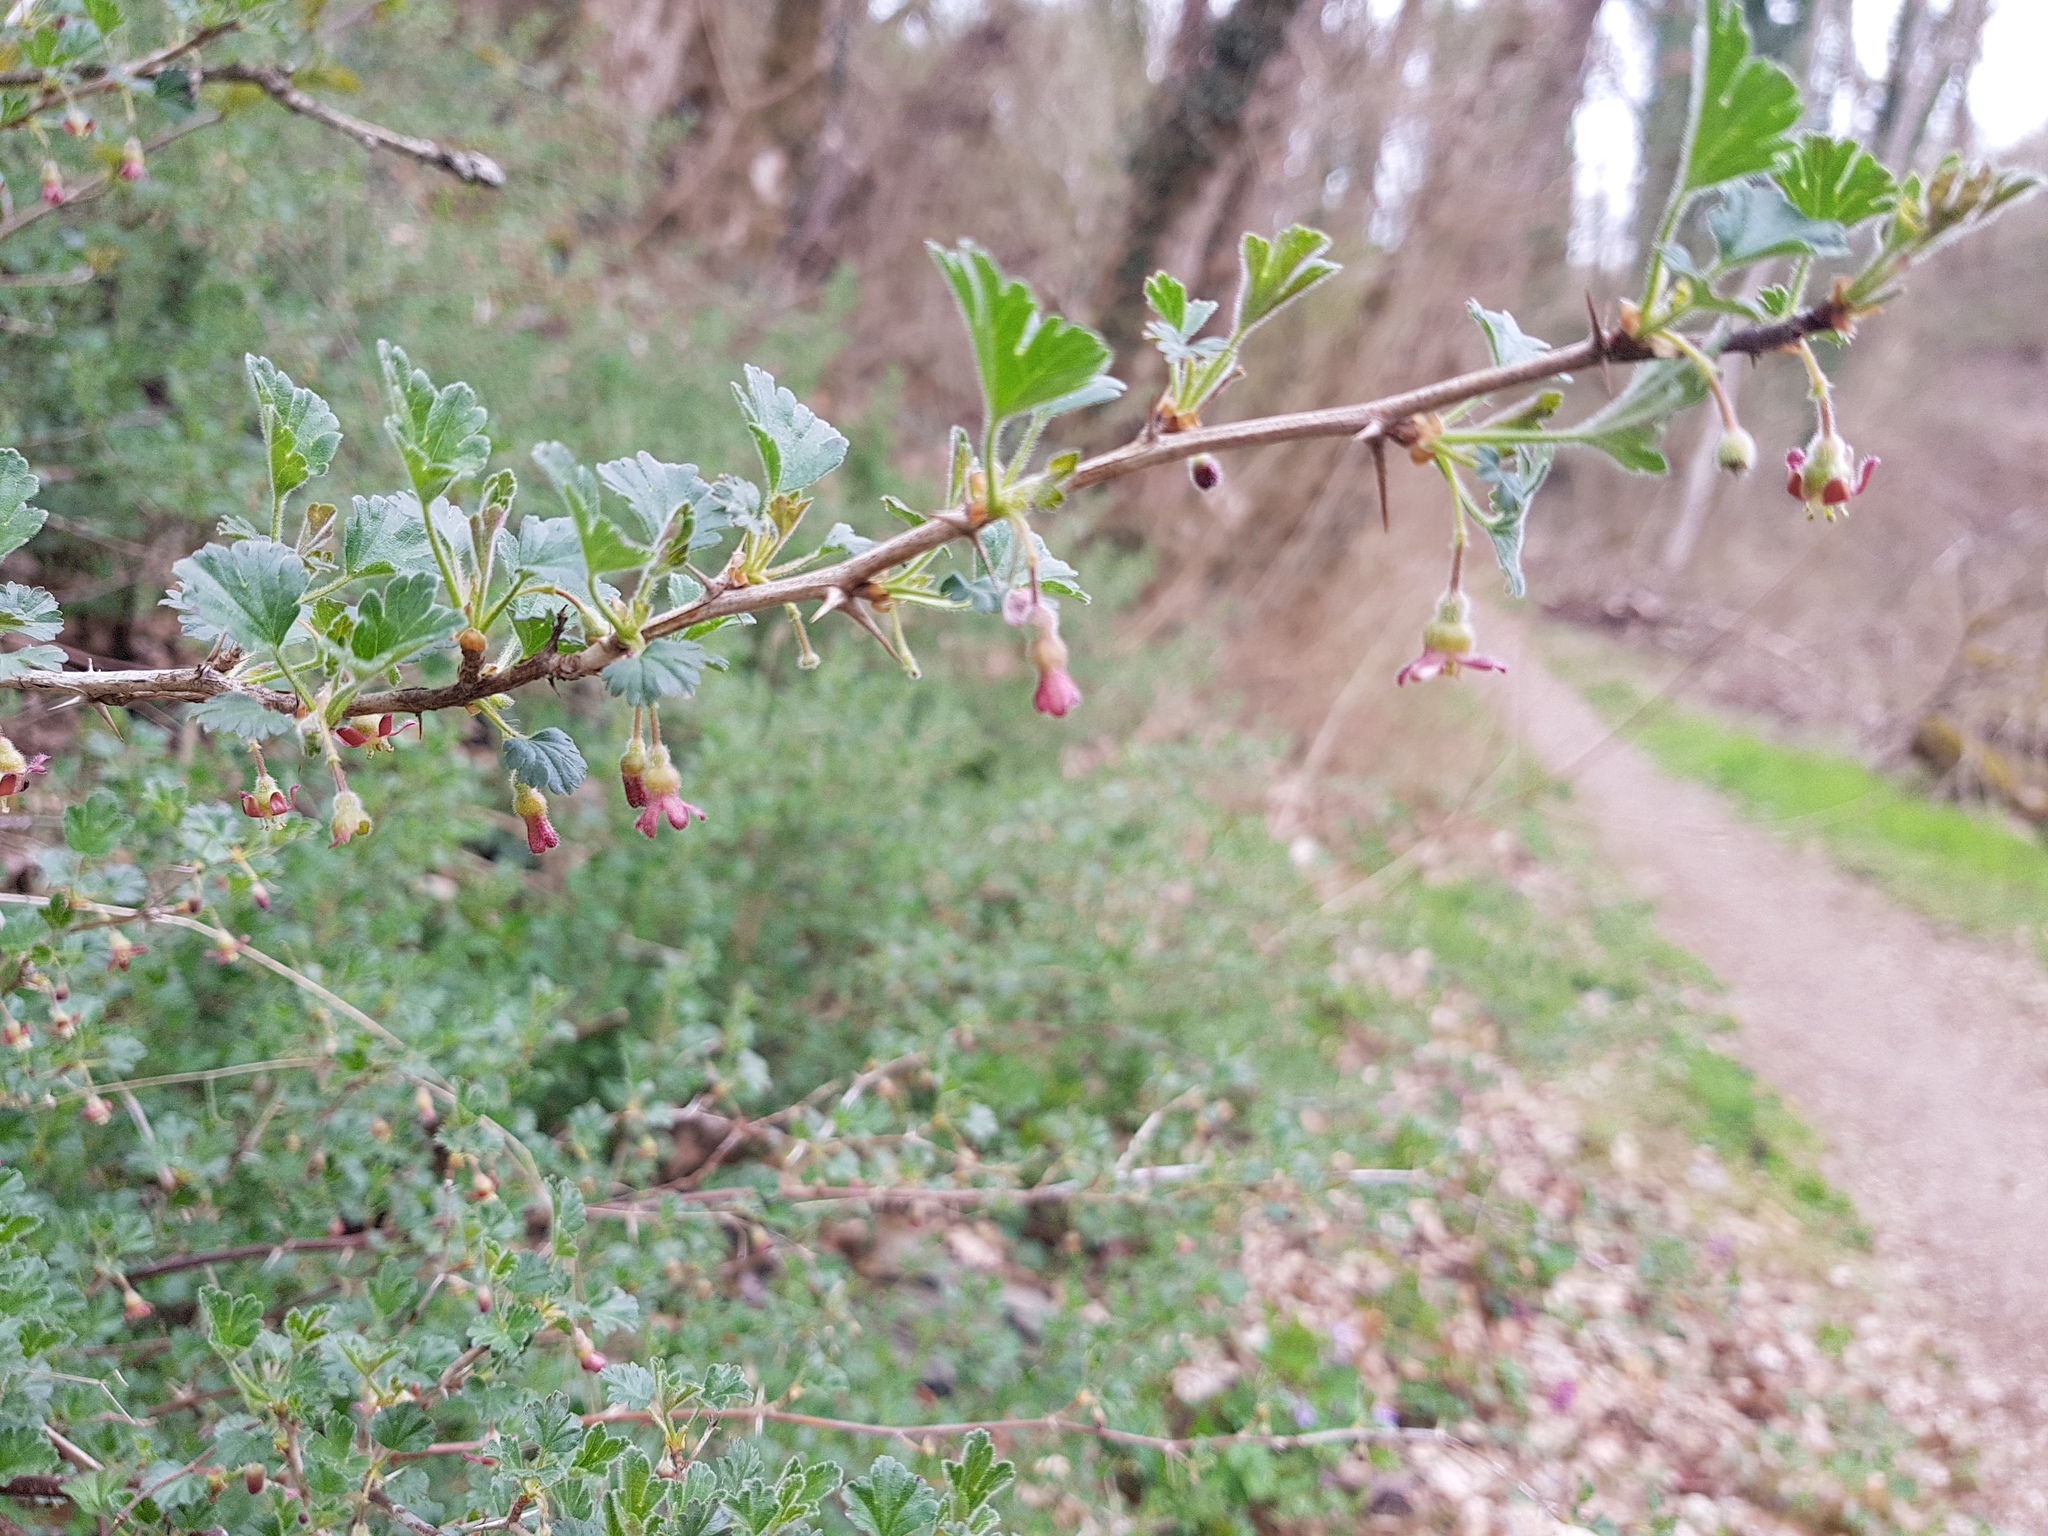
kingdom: Plantae
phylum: Tracheophyta
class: Magnoliopsida
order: Saxifragales
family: Grossulariaceae
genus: Ribes
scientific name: Ribes uva-crispa
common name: Gooseberry
